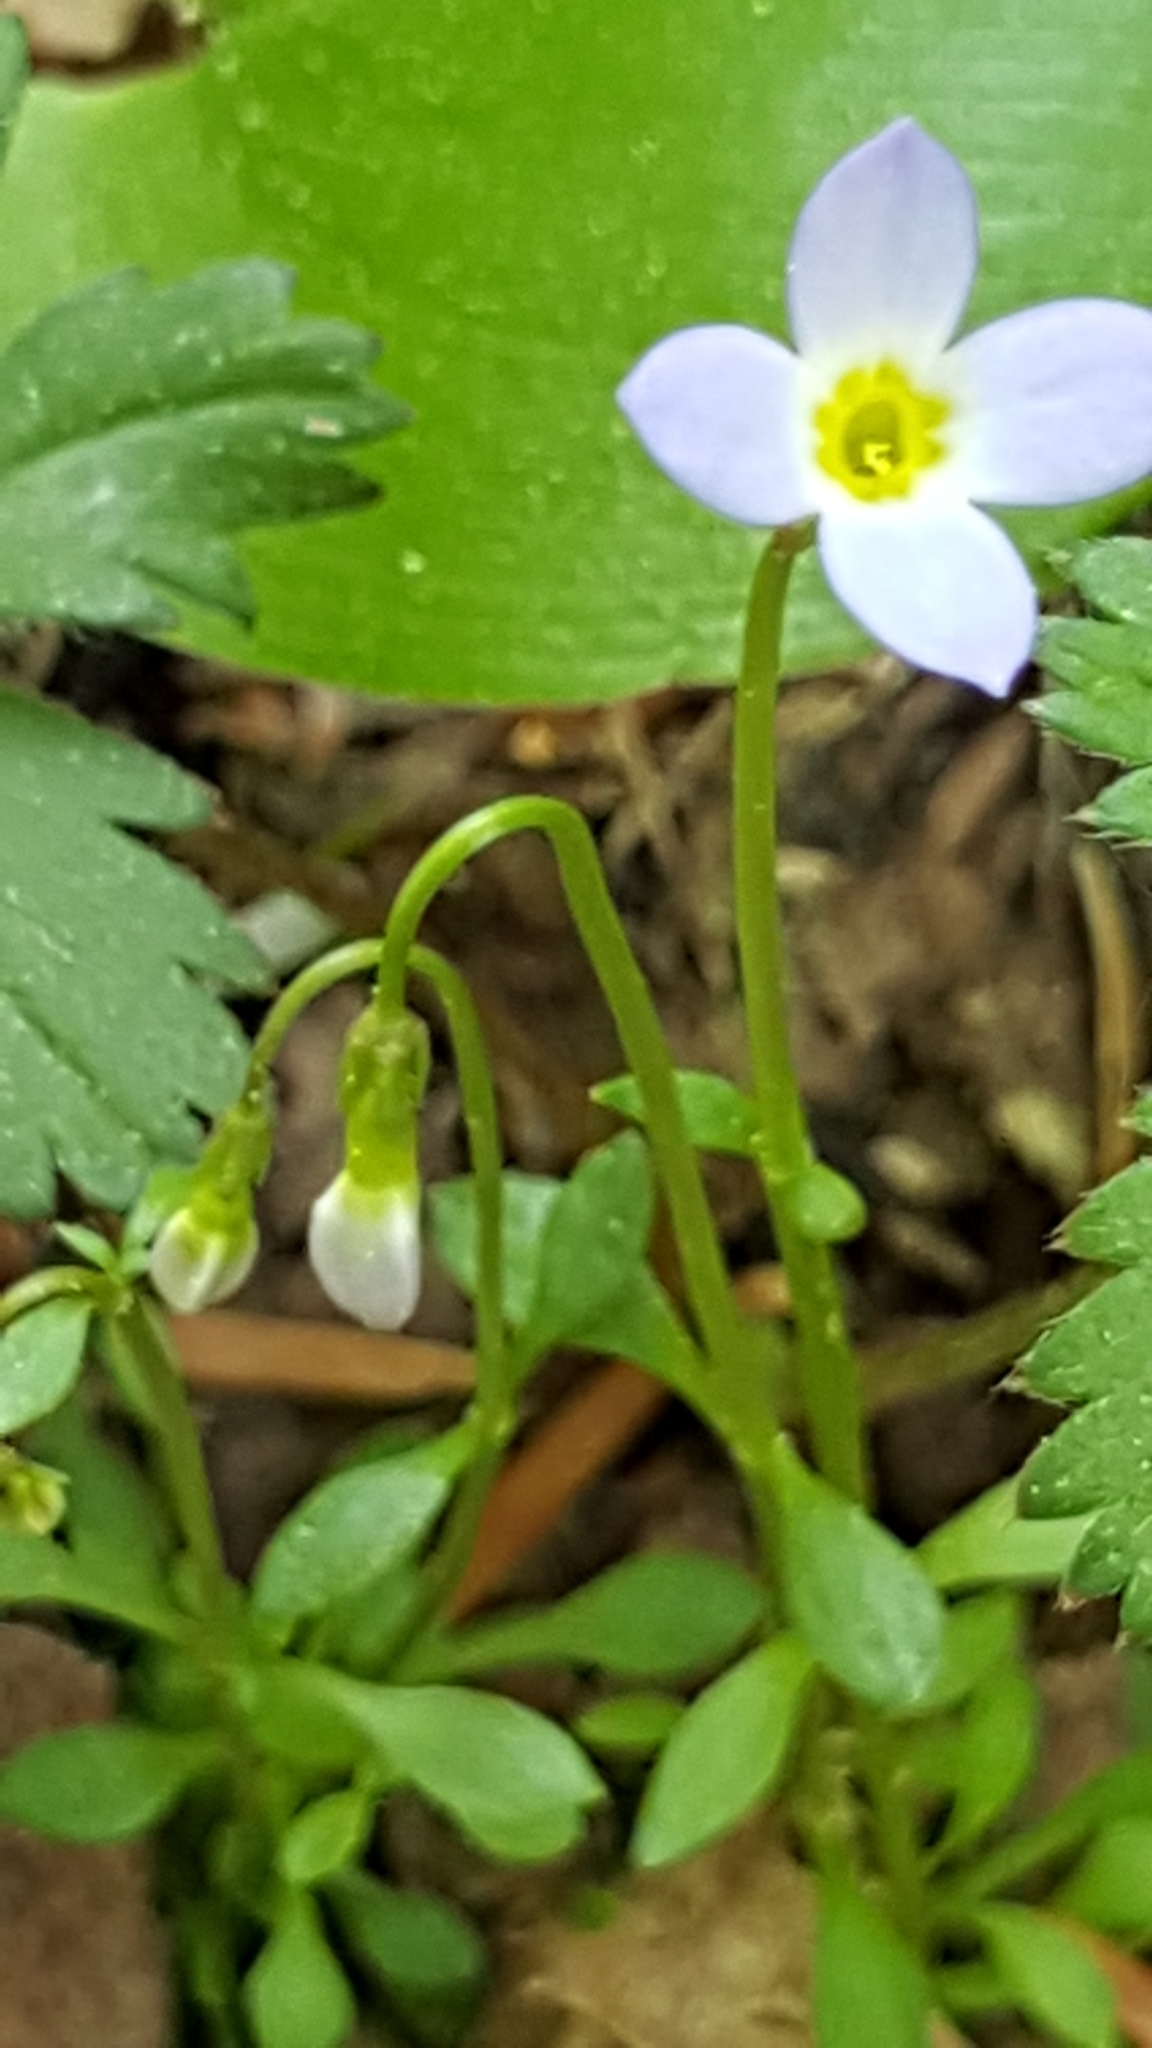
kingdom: Plantae
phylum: Tracheophyta
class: Magnoliopsida
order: Gentianales
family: Rubiaceae
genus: Houstonia
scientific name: Houstonia caerulea
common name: Bluets
